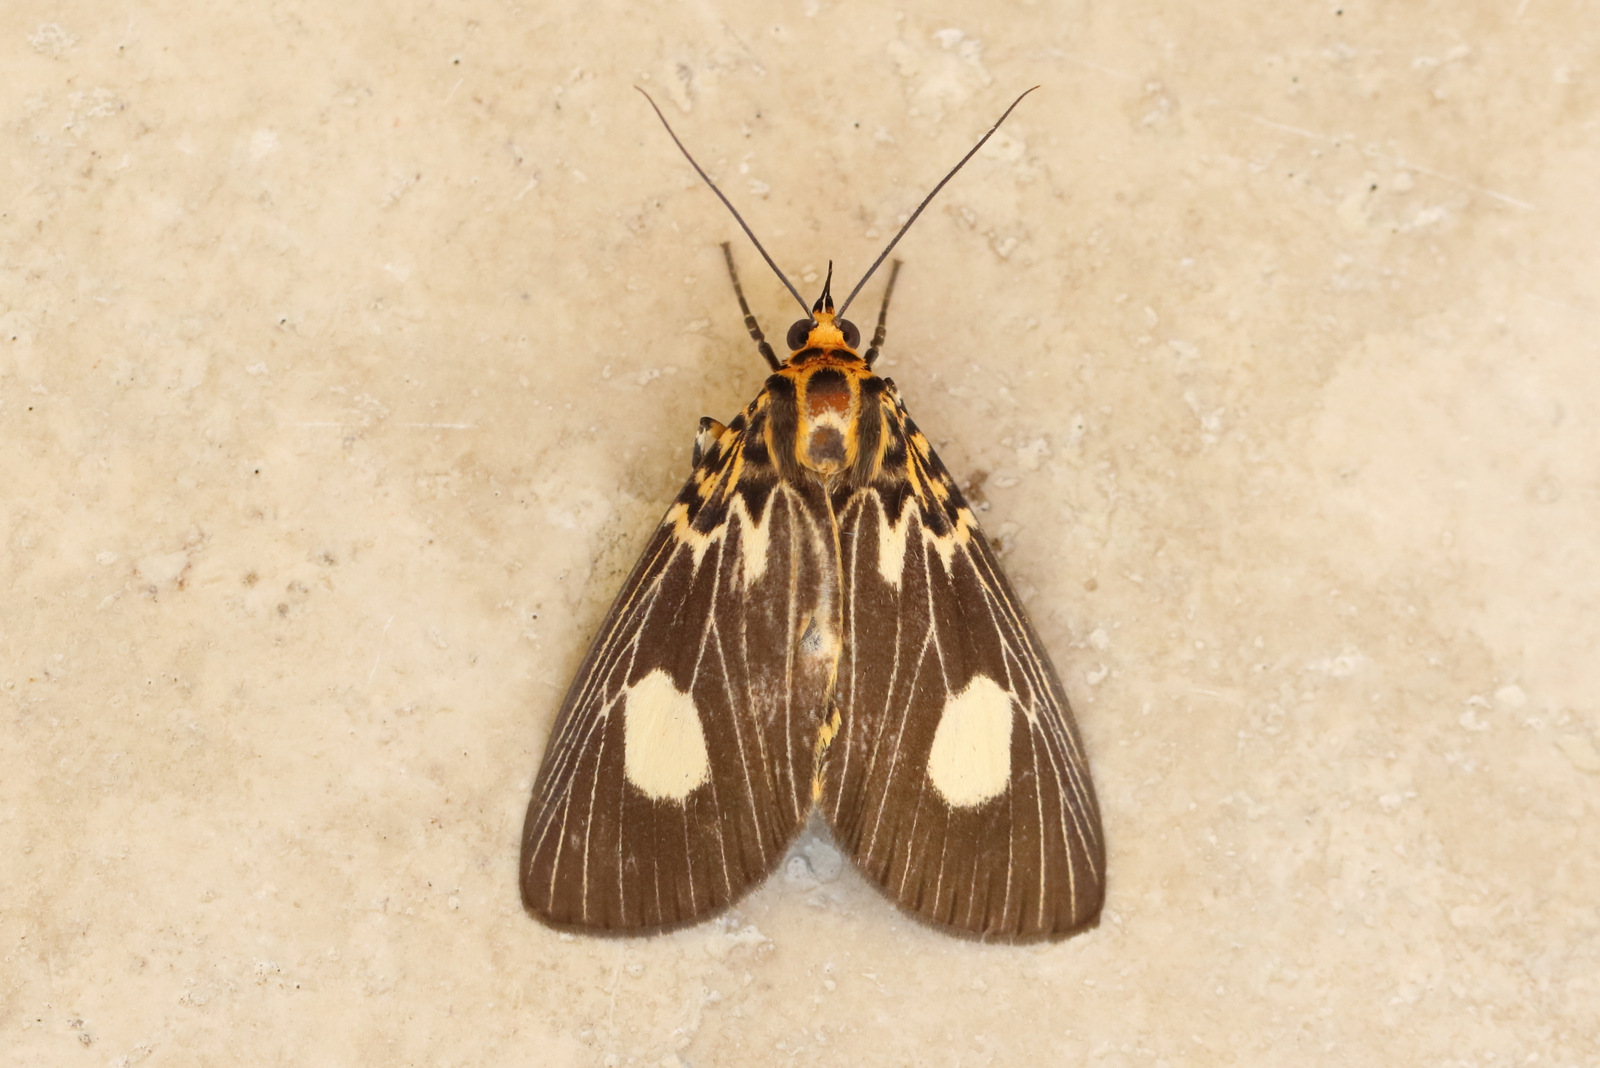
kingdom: Animalia
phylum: Arthropoda
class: Insecta
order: Lepidoptera
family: Erebidae
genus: Asota
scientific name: Asota plagiata
